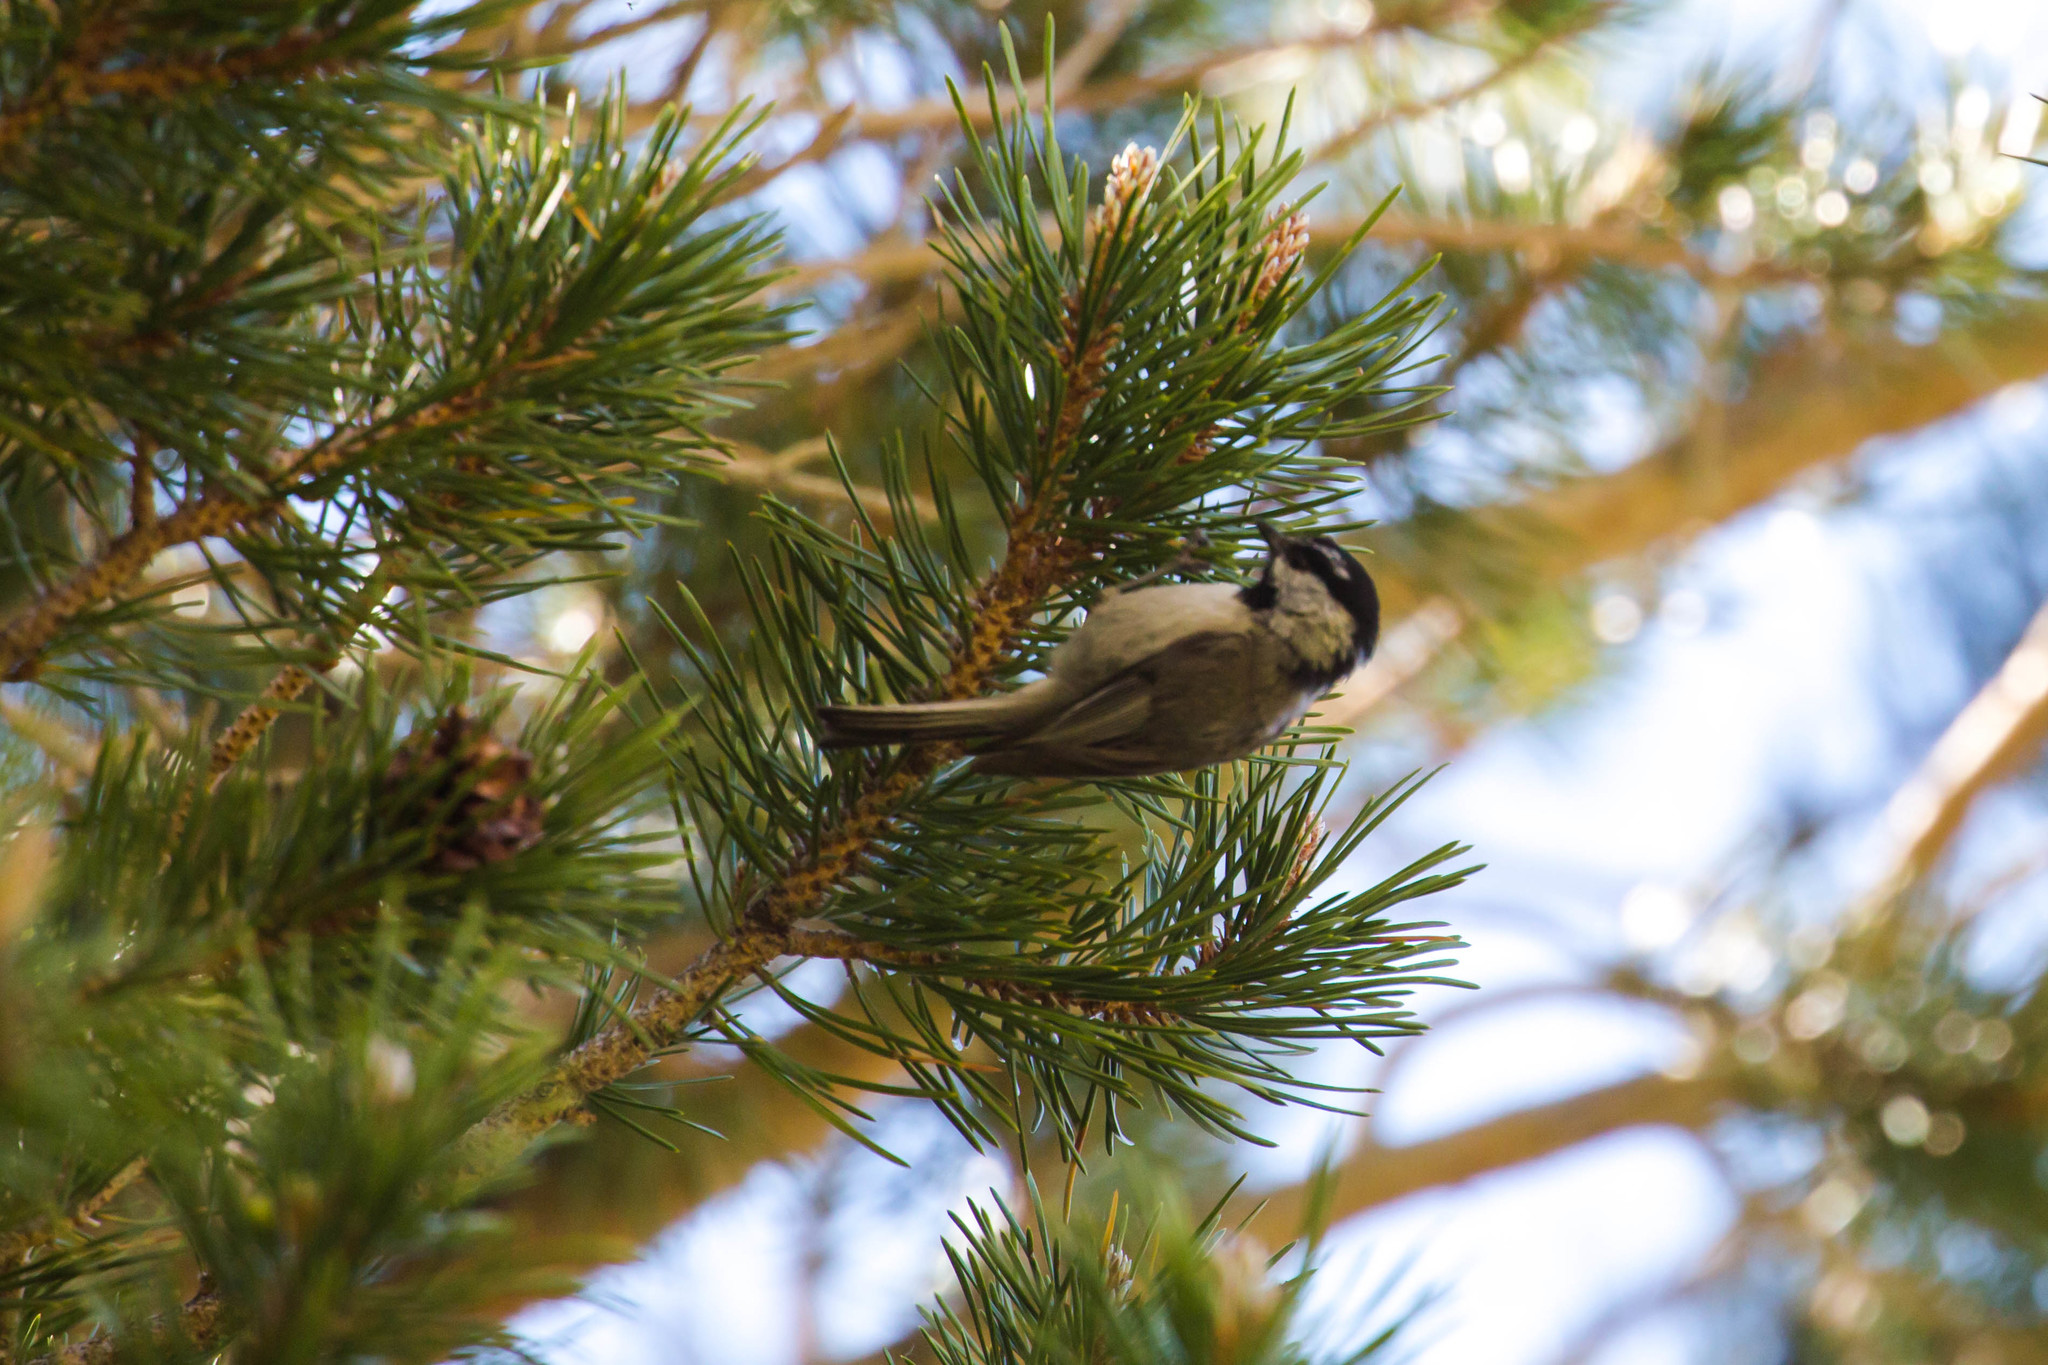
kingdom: Animalia
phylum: Chordata
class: Aves
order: Passeriformes
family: Paridae
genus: Poecile
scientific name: Poecile gambeli
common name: Mountain chickadee
